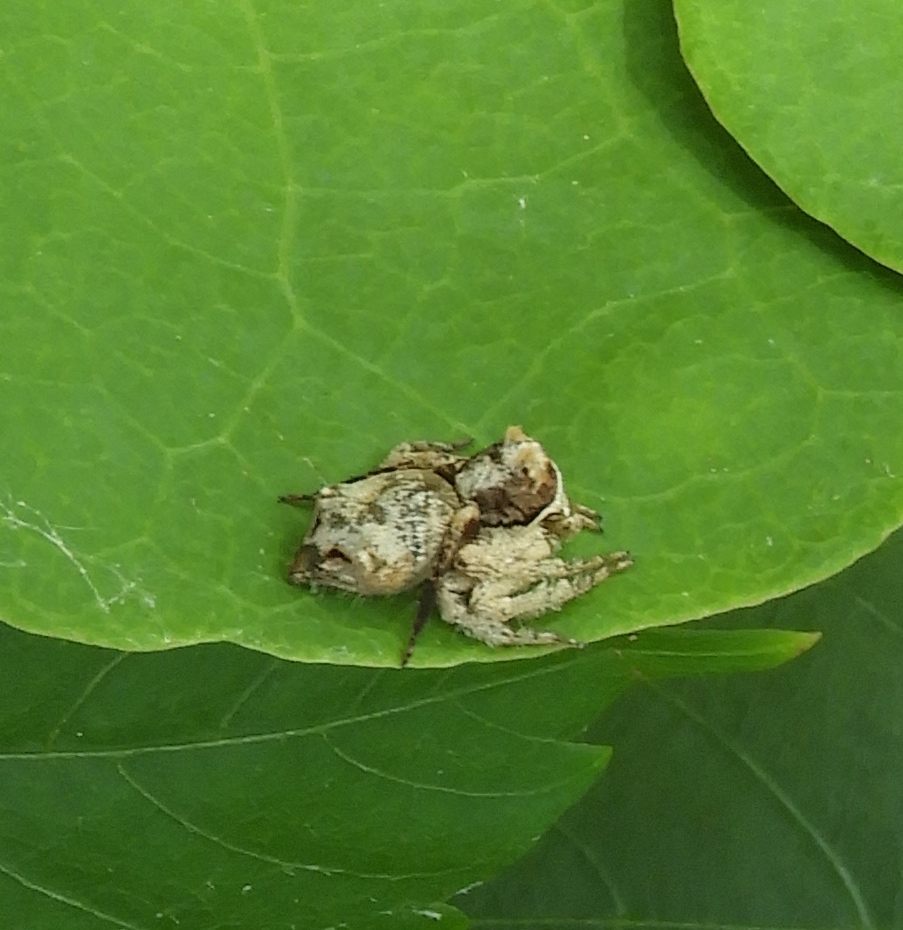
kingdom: Animalia
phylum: Arthropoda
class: Arachnida
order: Araneae
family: Oxyopidae
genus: Hamataliwa
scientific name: Hamataliwa
